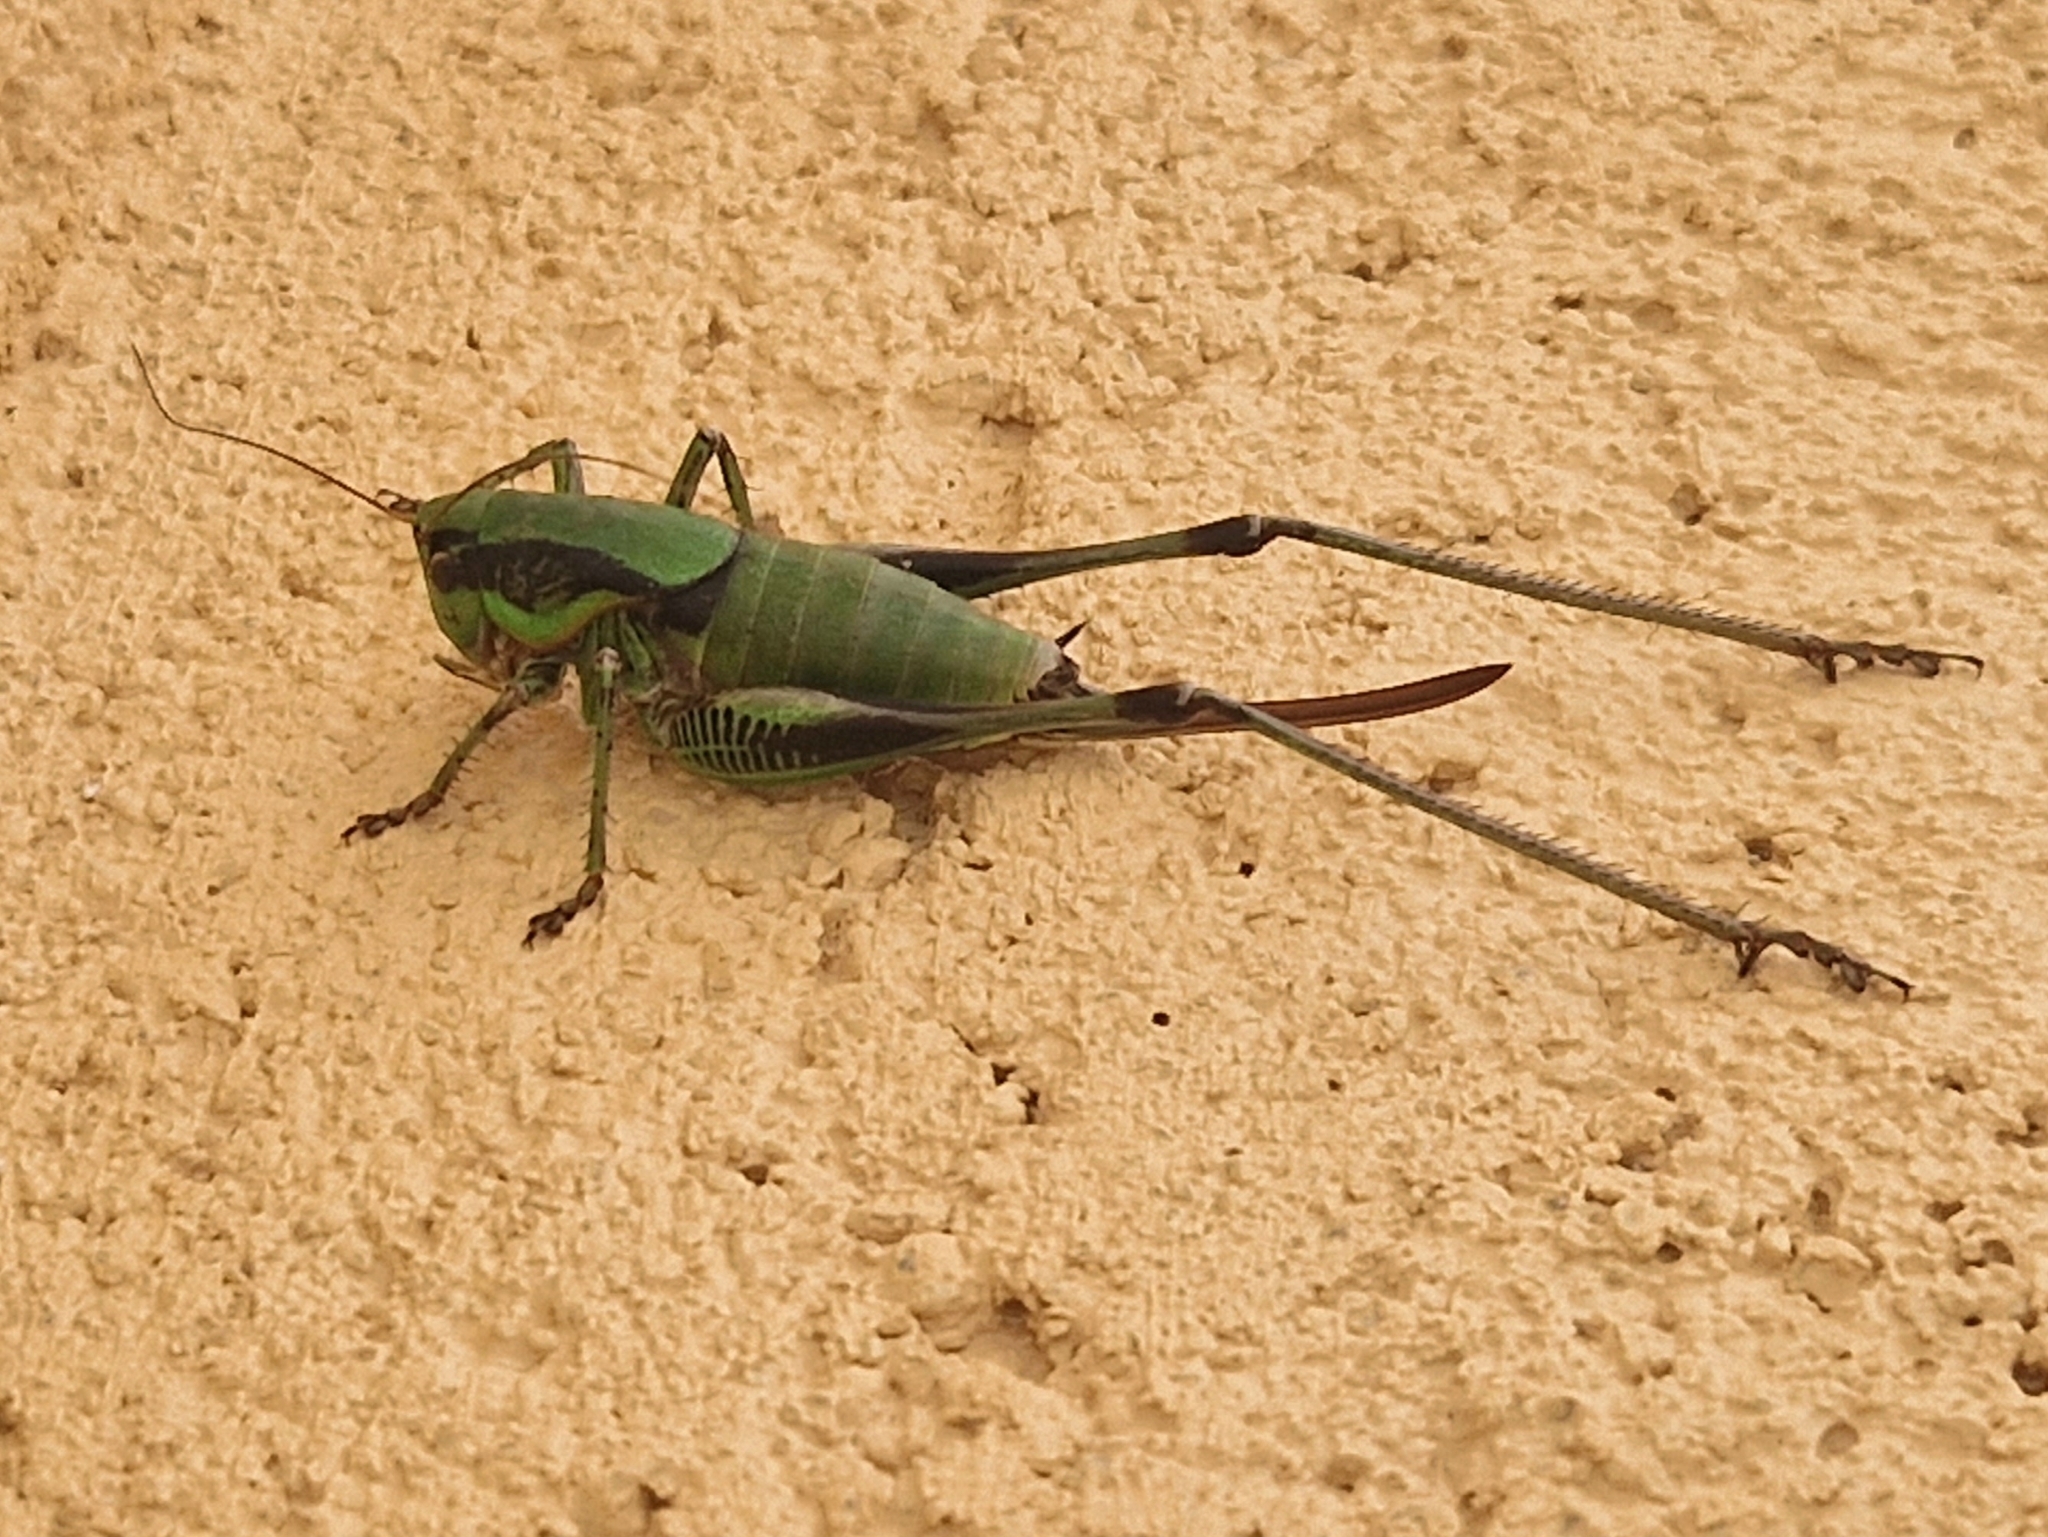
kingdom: Animalia
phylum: Arthropoda
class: Insecta
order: Orthoptera
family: Tettigoniidae
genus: Eupholidoptera
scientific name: Eupholidoptera schmidti
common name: Schmidt's marbled bush-cricket
